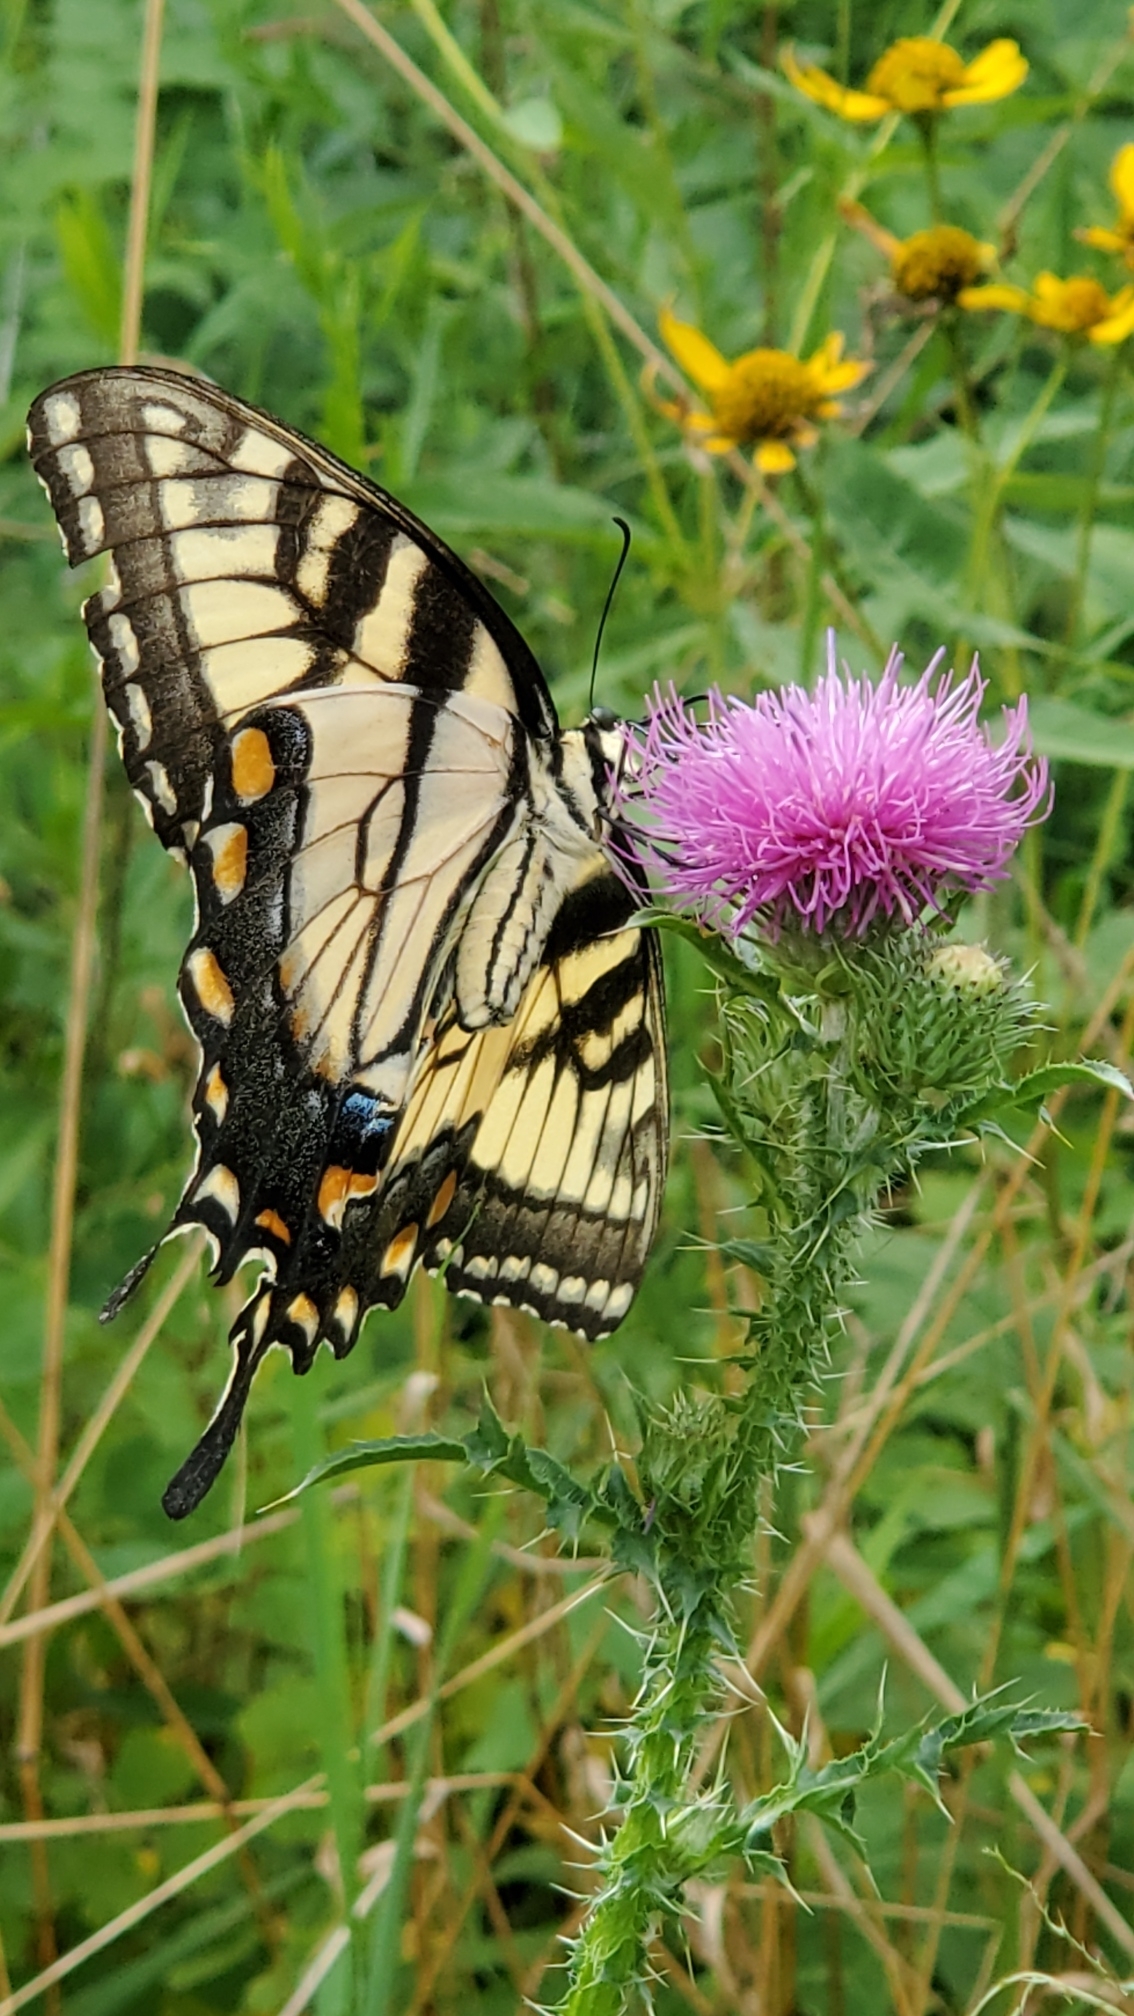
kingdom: Animalia
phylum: Arthropoda
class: Insecta
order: Lepidoptera
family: Papilionidae
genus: Papilio
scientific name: Papilio glaucus
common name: Tiger swallowtail
